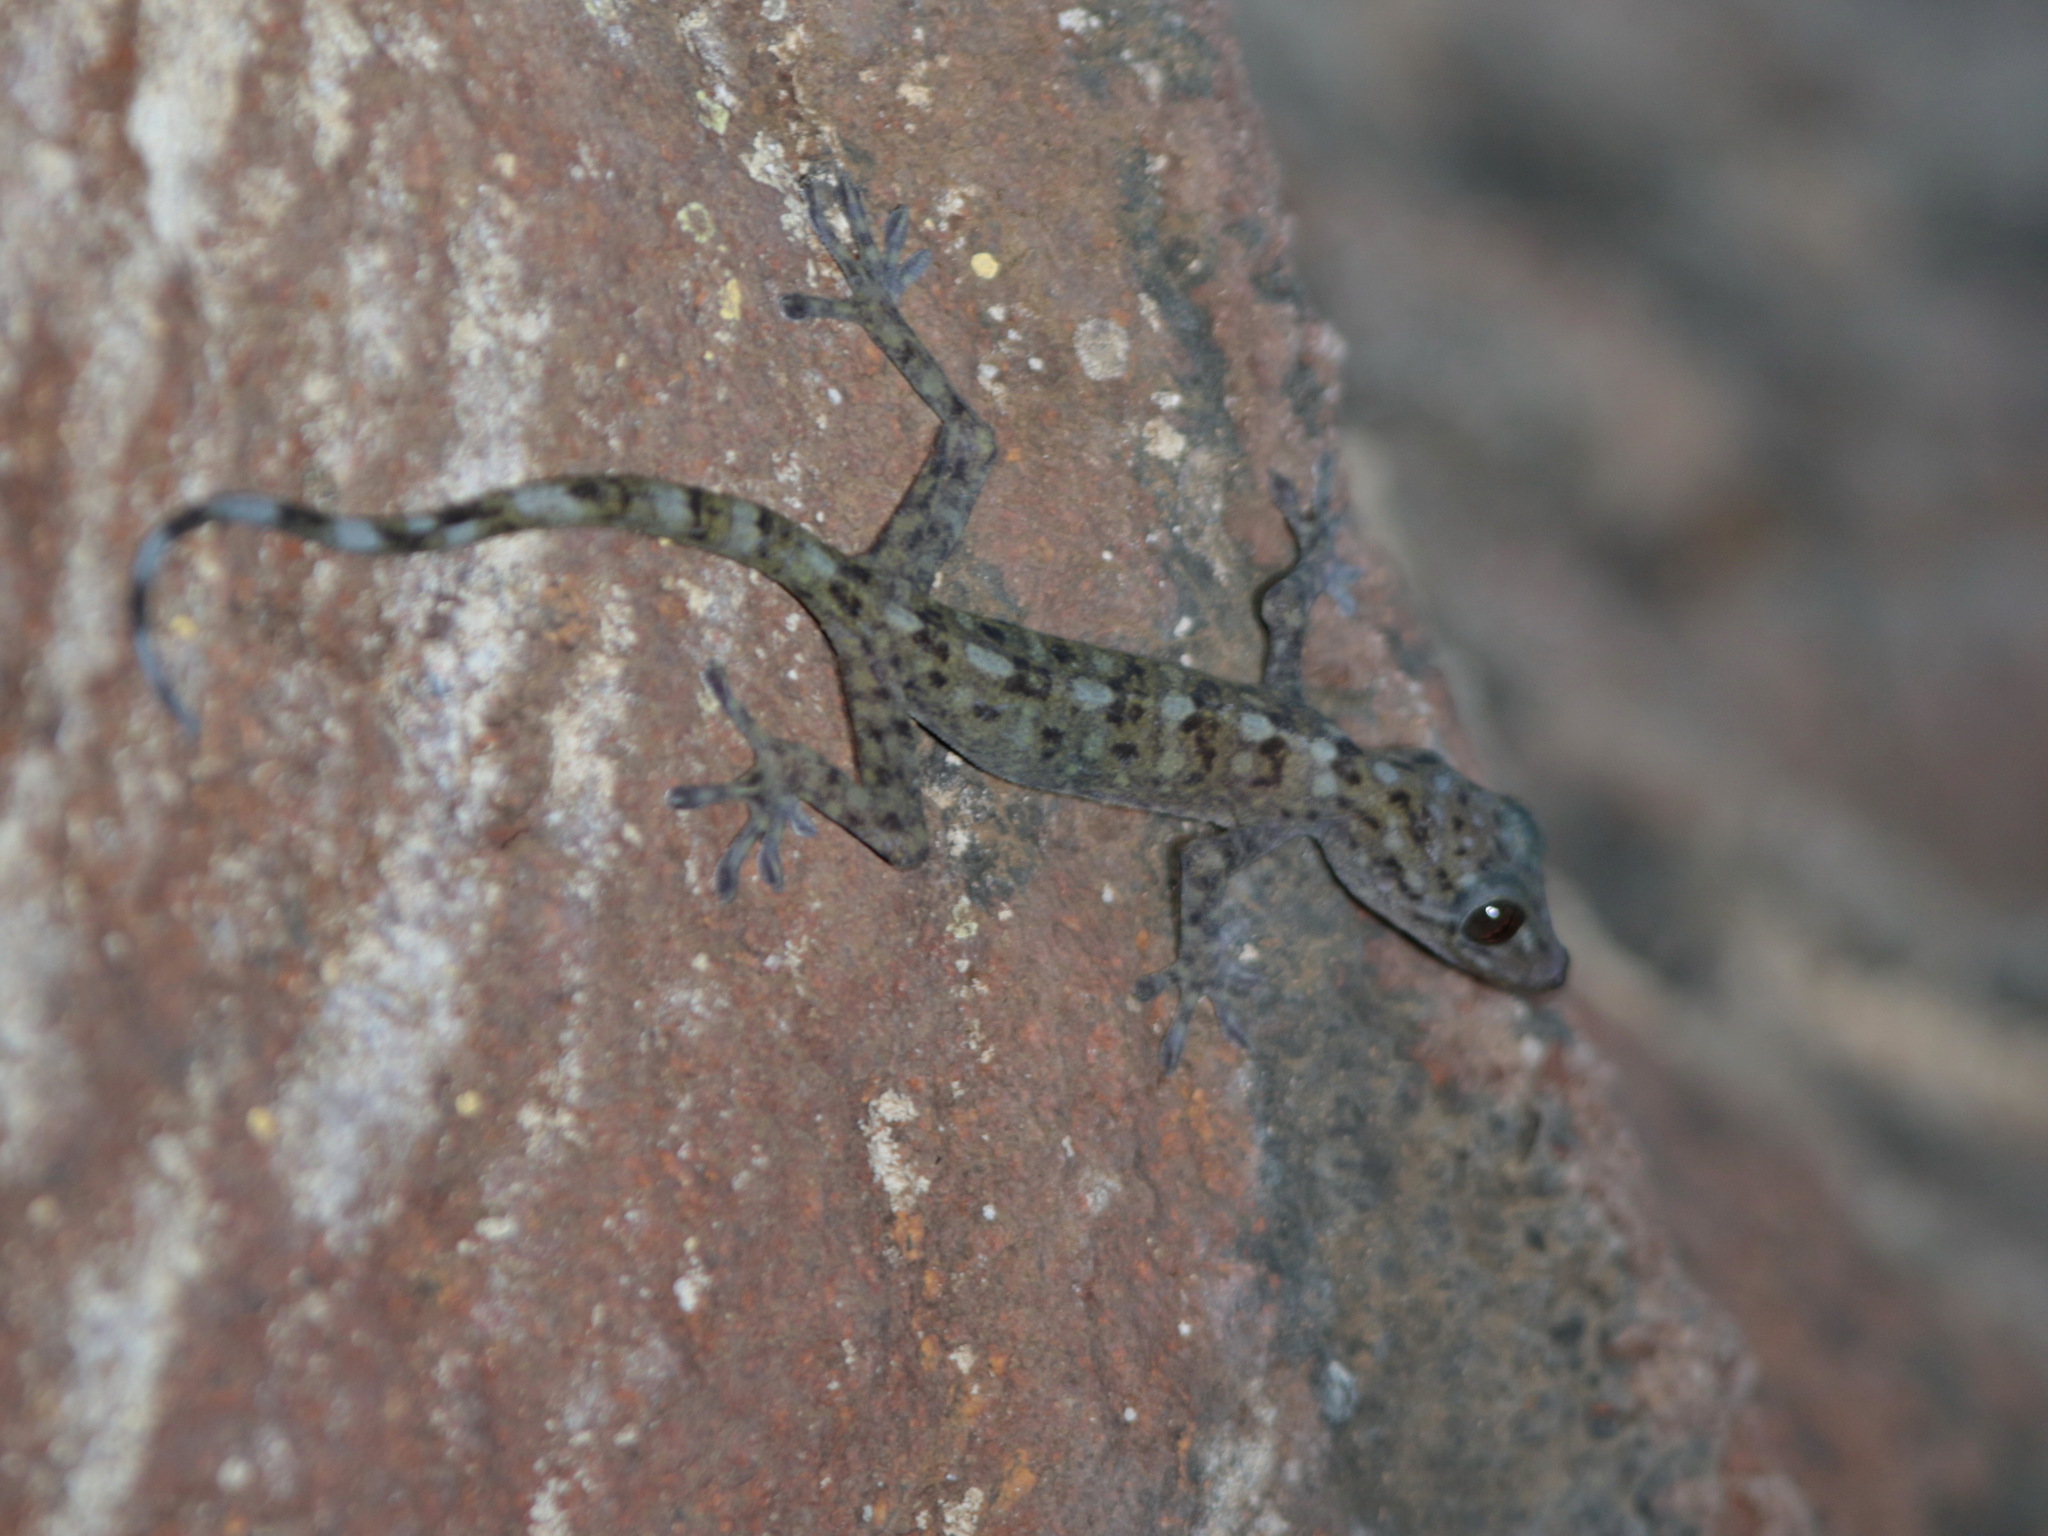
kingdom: Animalia
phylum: Chordata
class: Squamata
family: Gekkonidae
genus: Gekko
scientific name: Gekko flavimaritus
